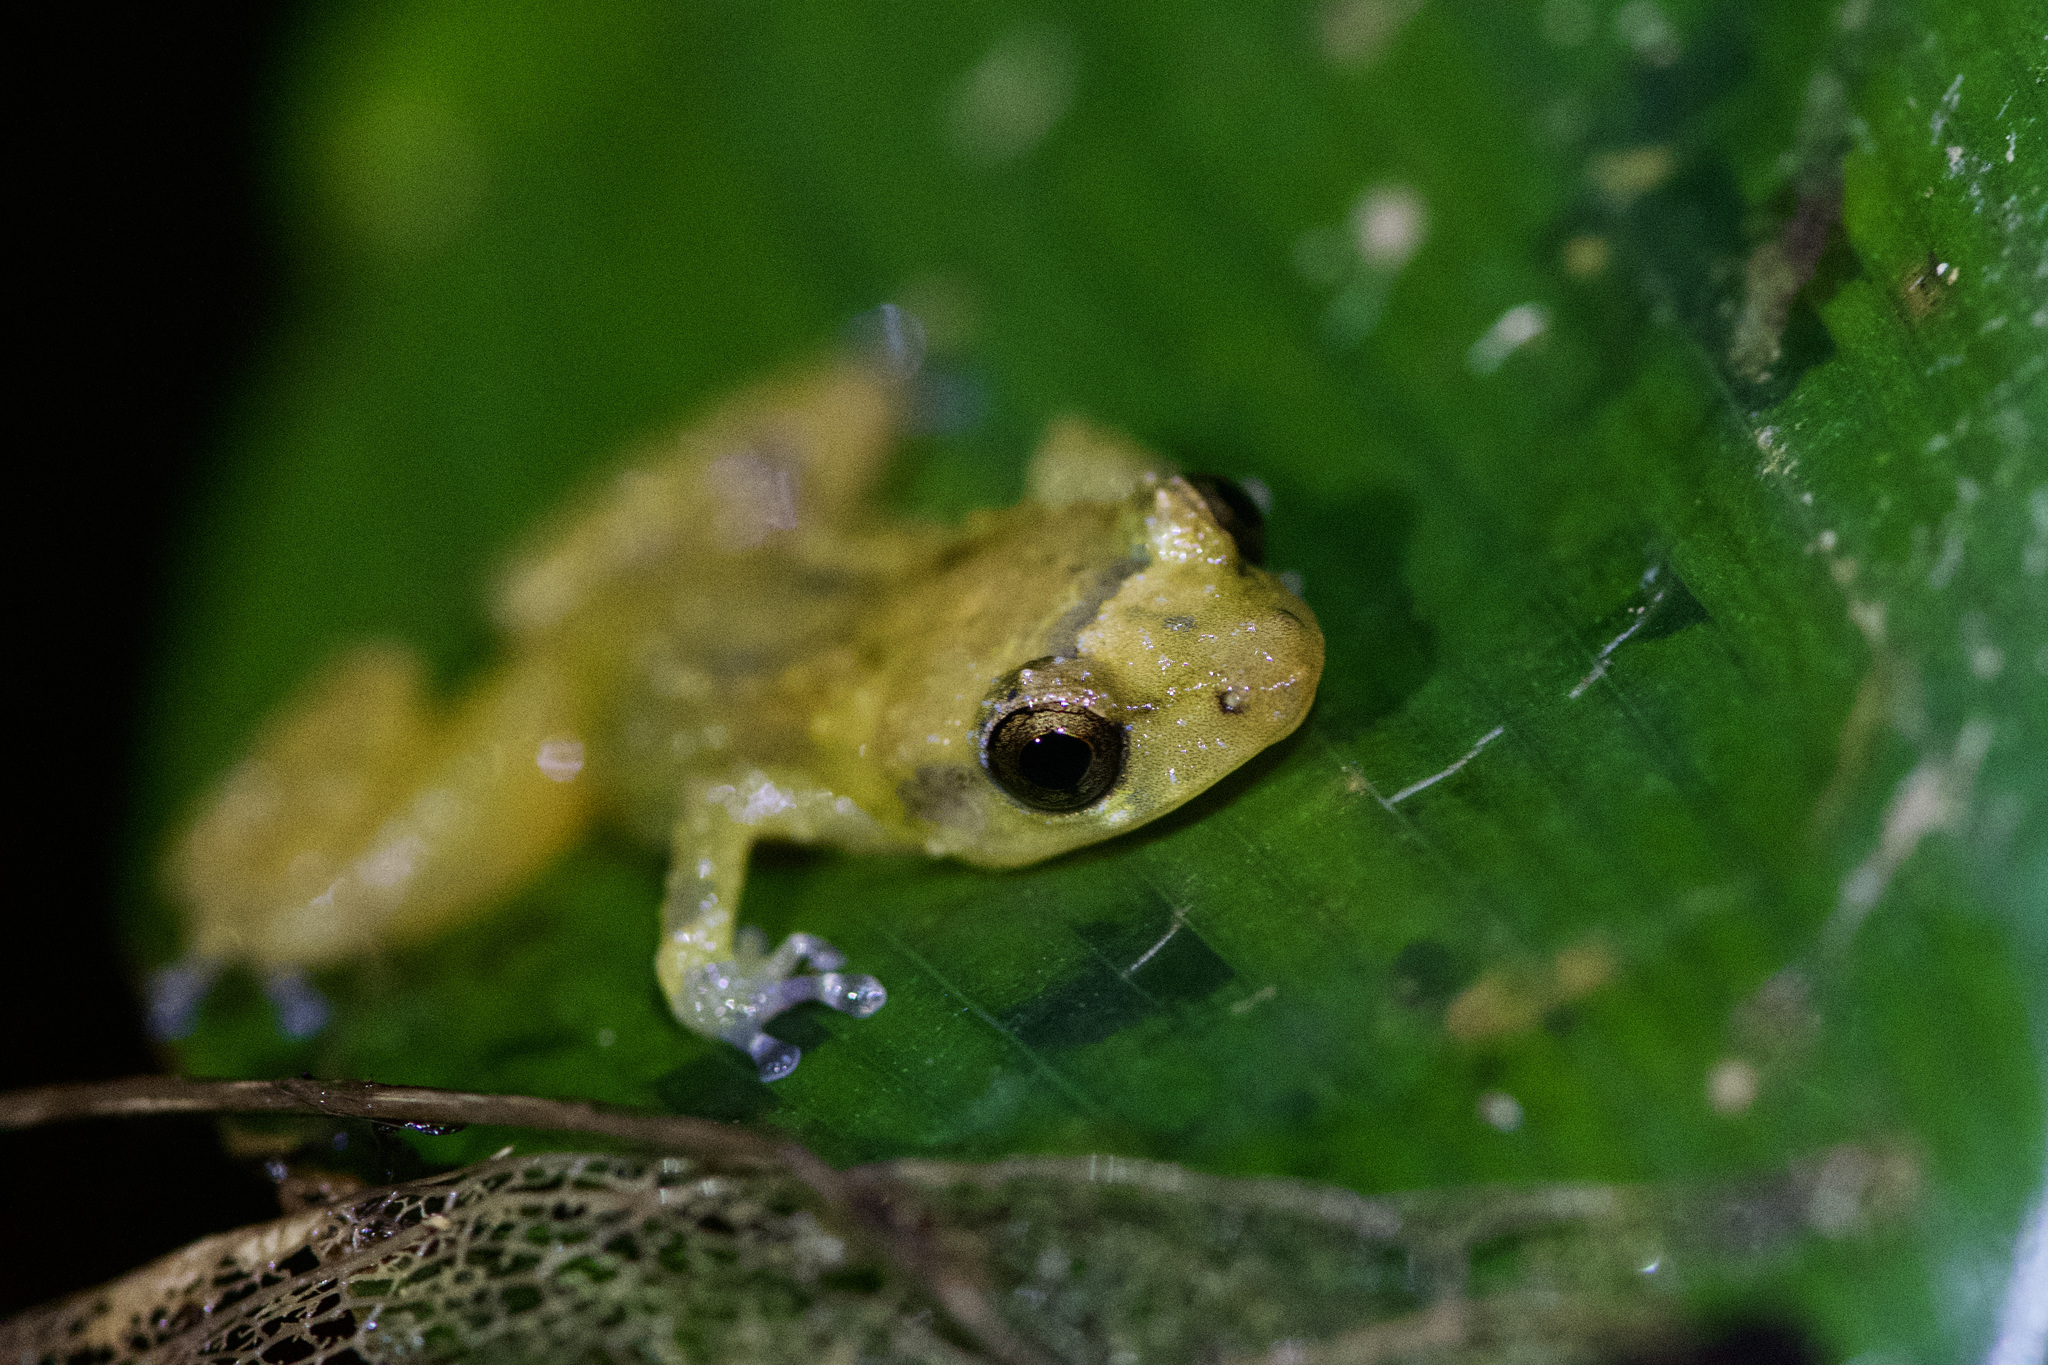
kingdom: Animalia
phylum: Chordata
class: Amphibia
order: Anura
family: Eleutherodactylidae
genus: Diasporus
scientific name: Diasporus diastema
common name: Caretta robber frog
